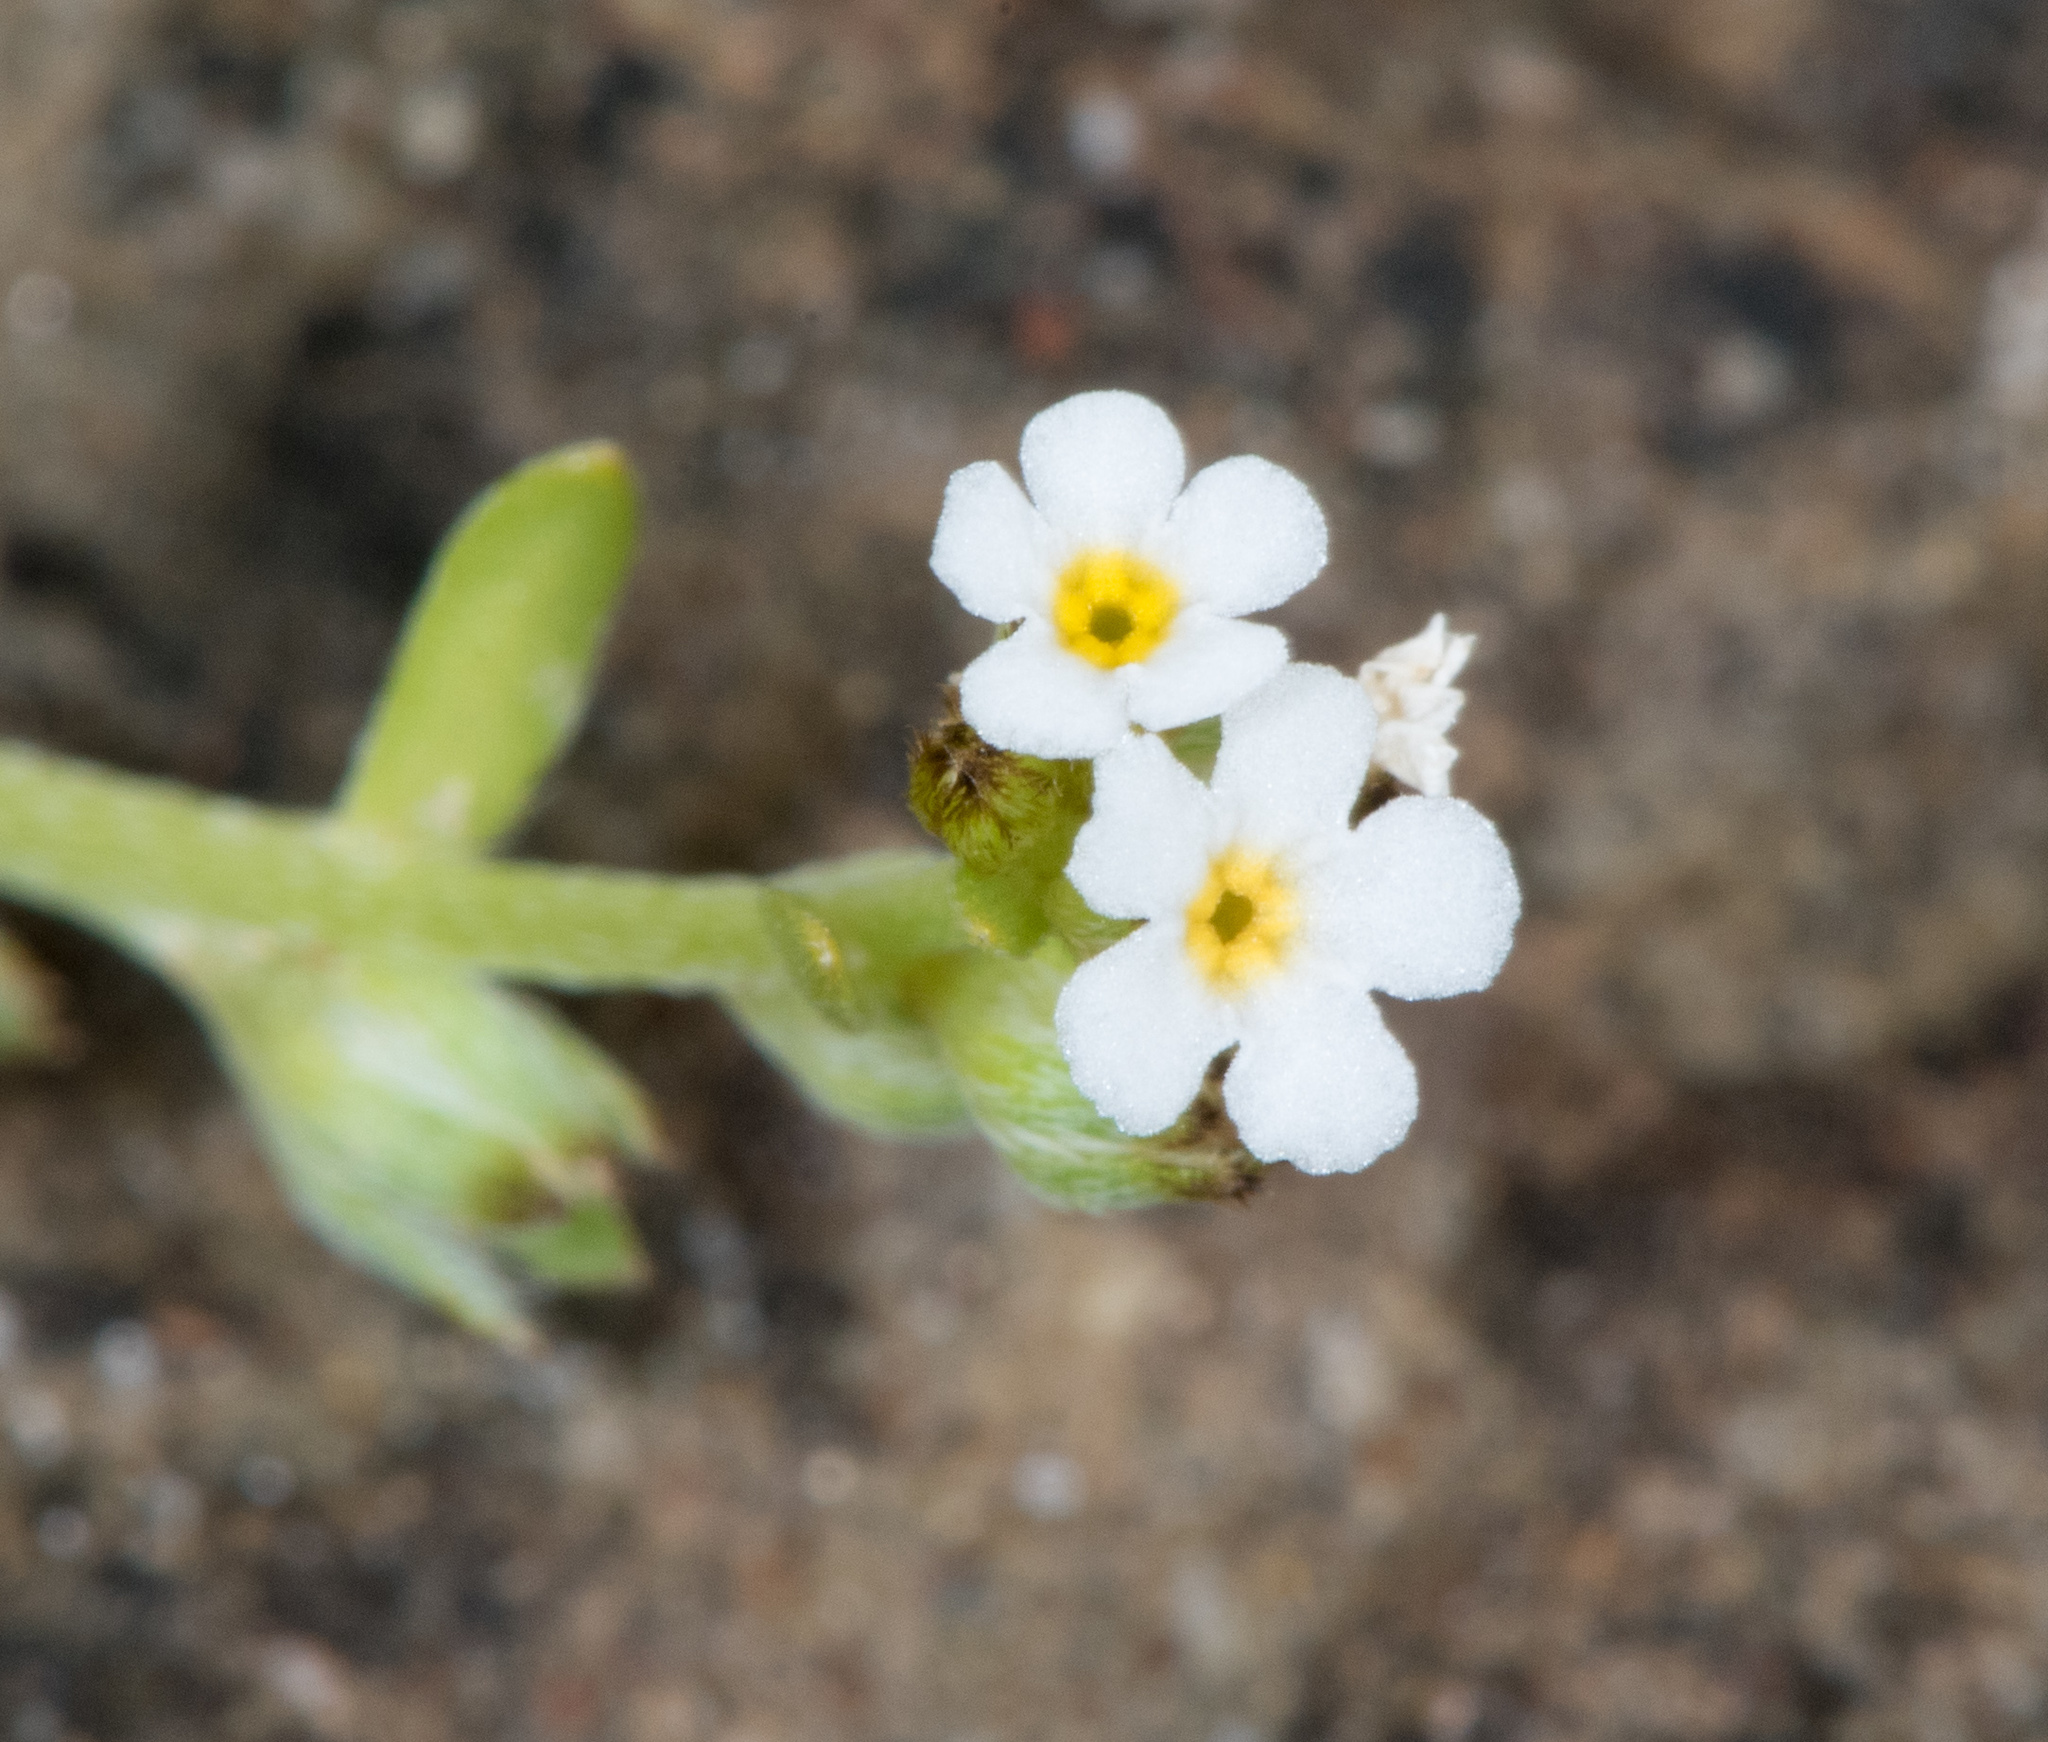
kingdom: Plantae
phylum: Tracheophyta
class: Magnoliopsida
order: Boraginales
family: Boraginaceae
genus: Plagiobothrys
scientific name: Plagiobothrys humistratus
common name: Dwarf popcornflower
